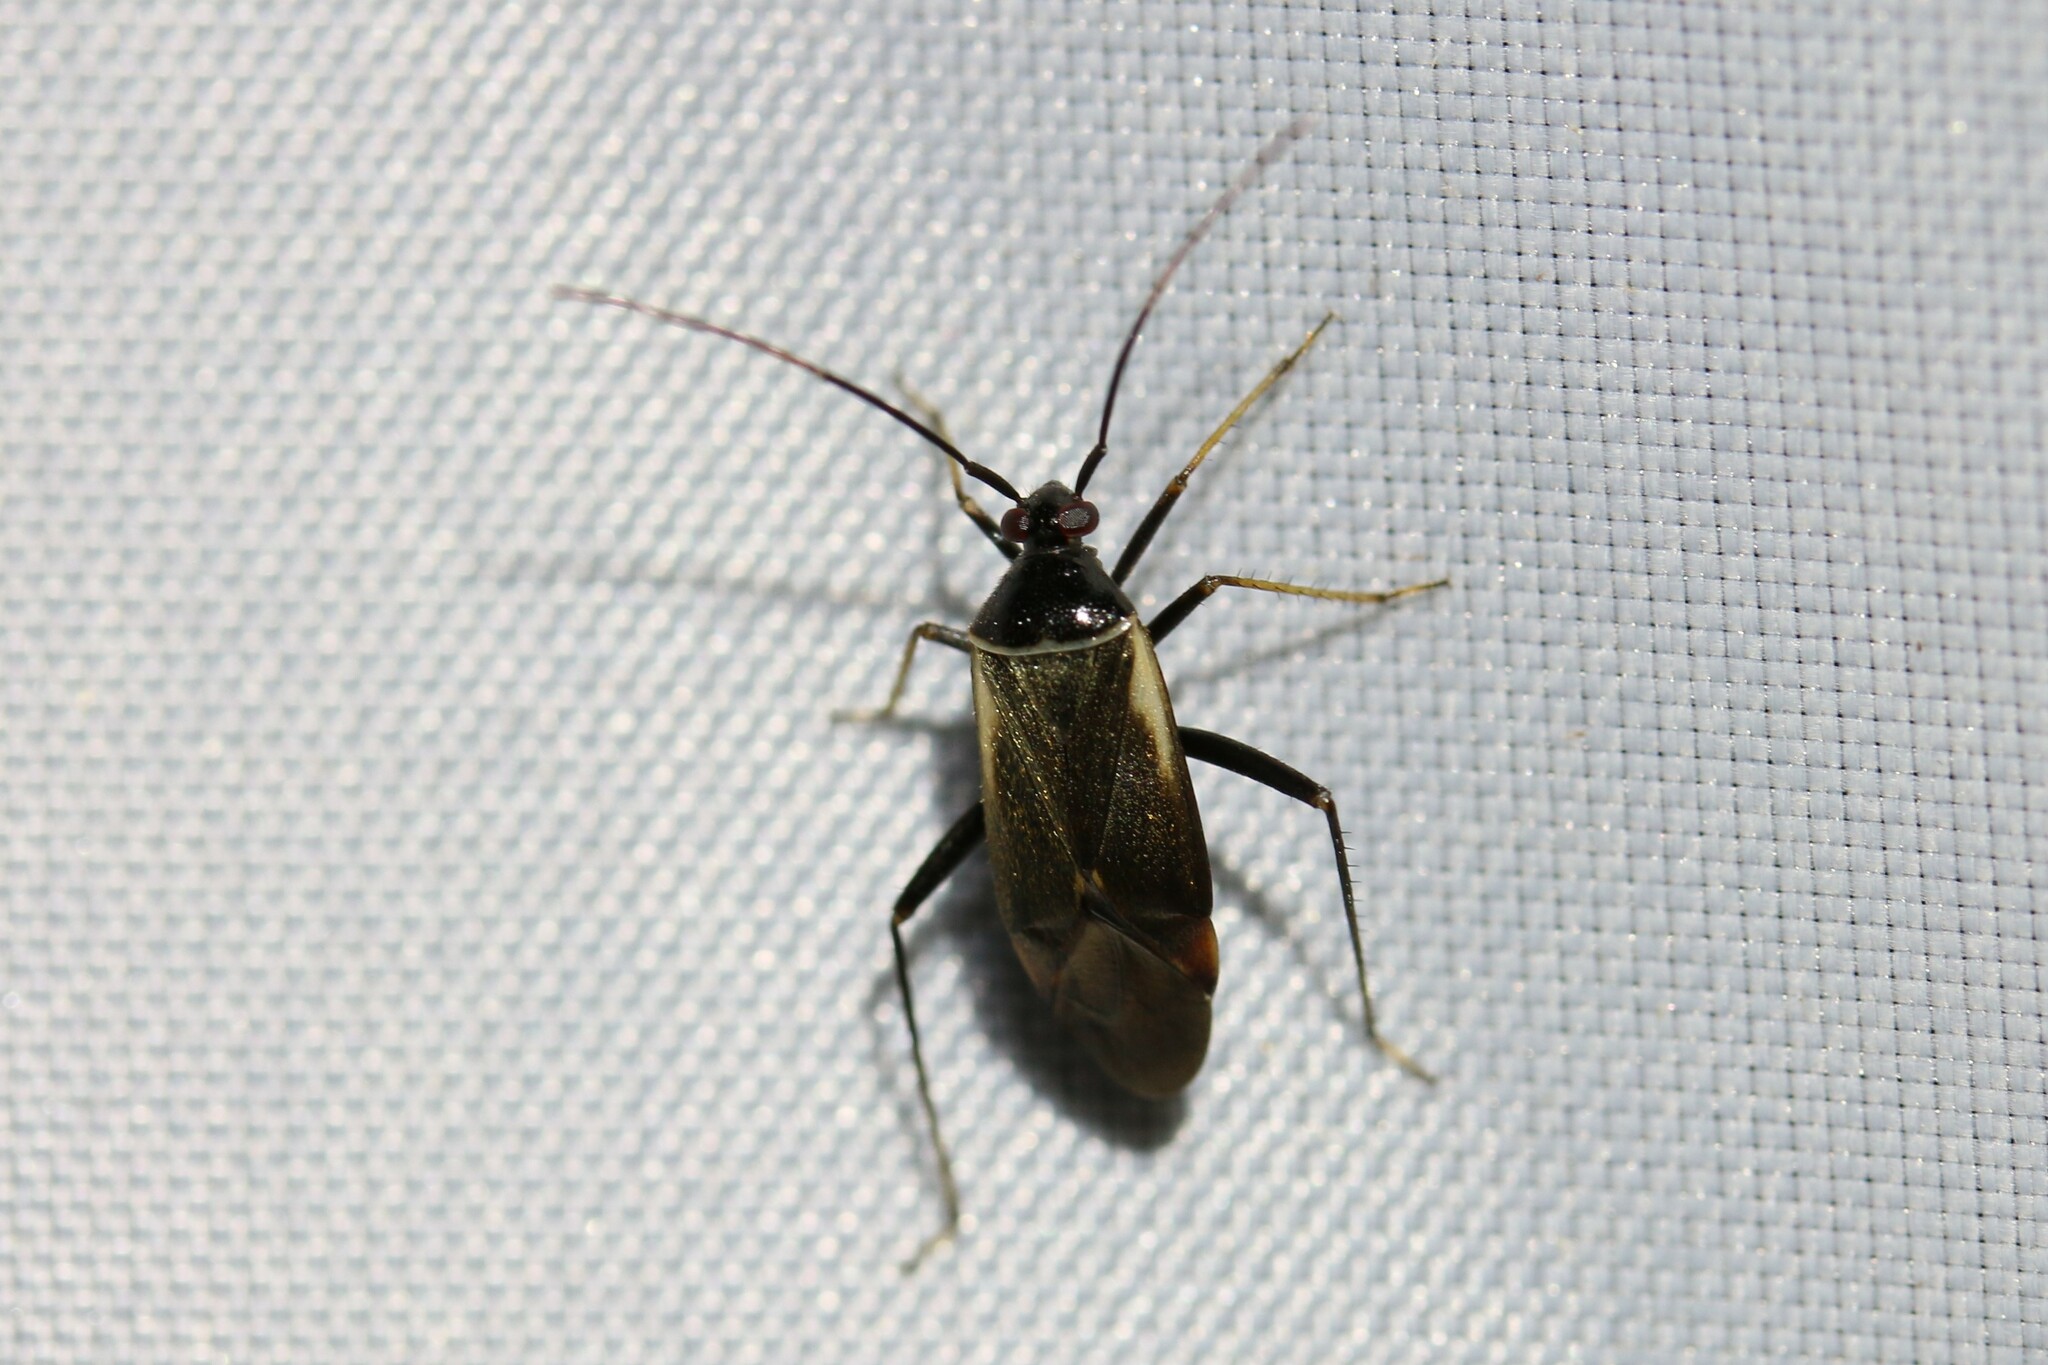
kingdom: Animalia
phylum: Arthropoda
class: Insecta
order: Hemiptera
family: Miridae
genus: Adelphocoris
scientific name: Adelphocoris seticornis
